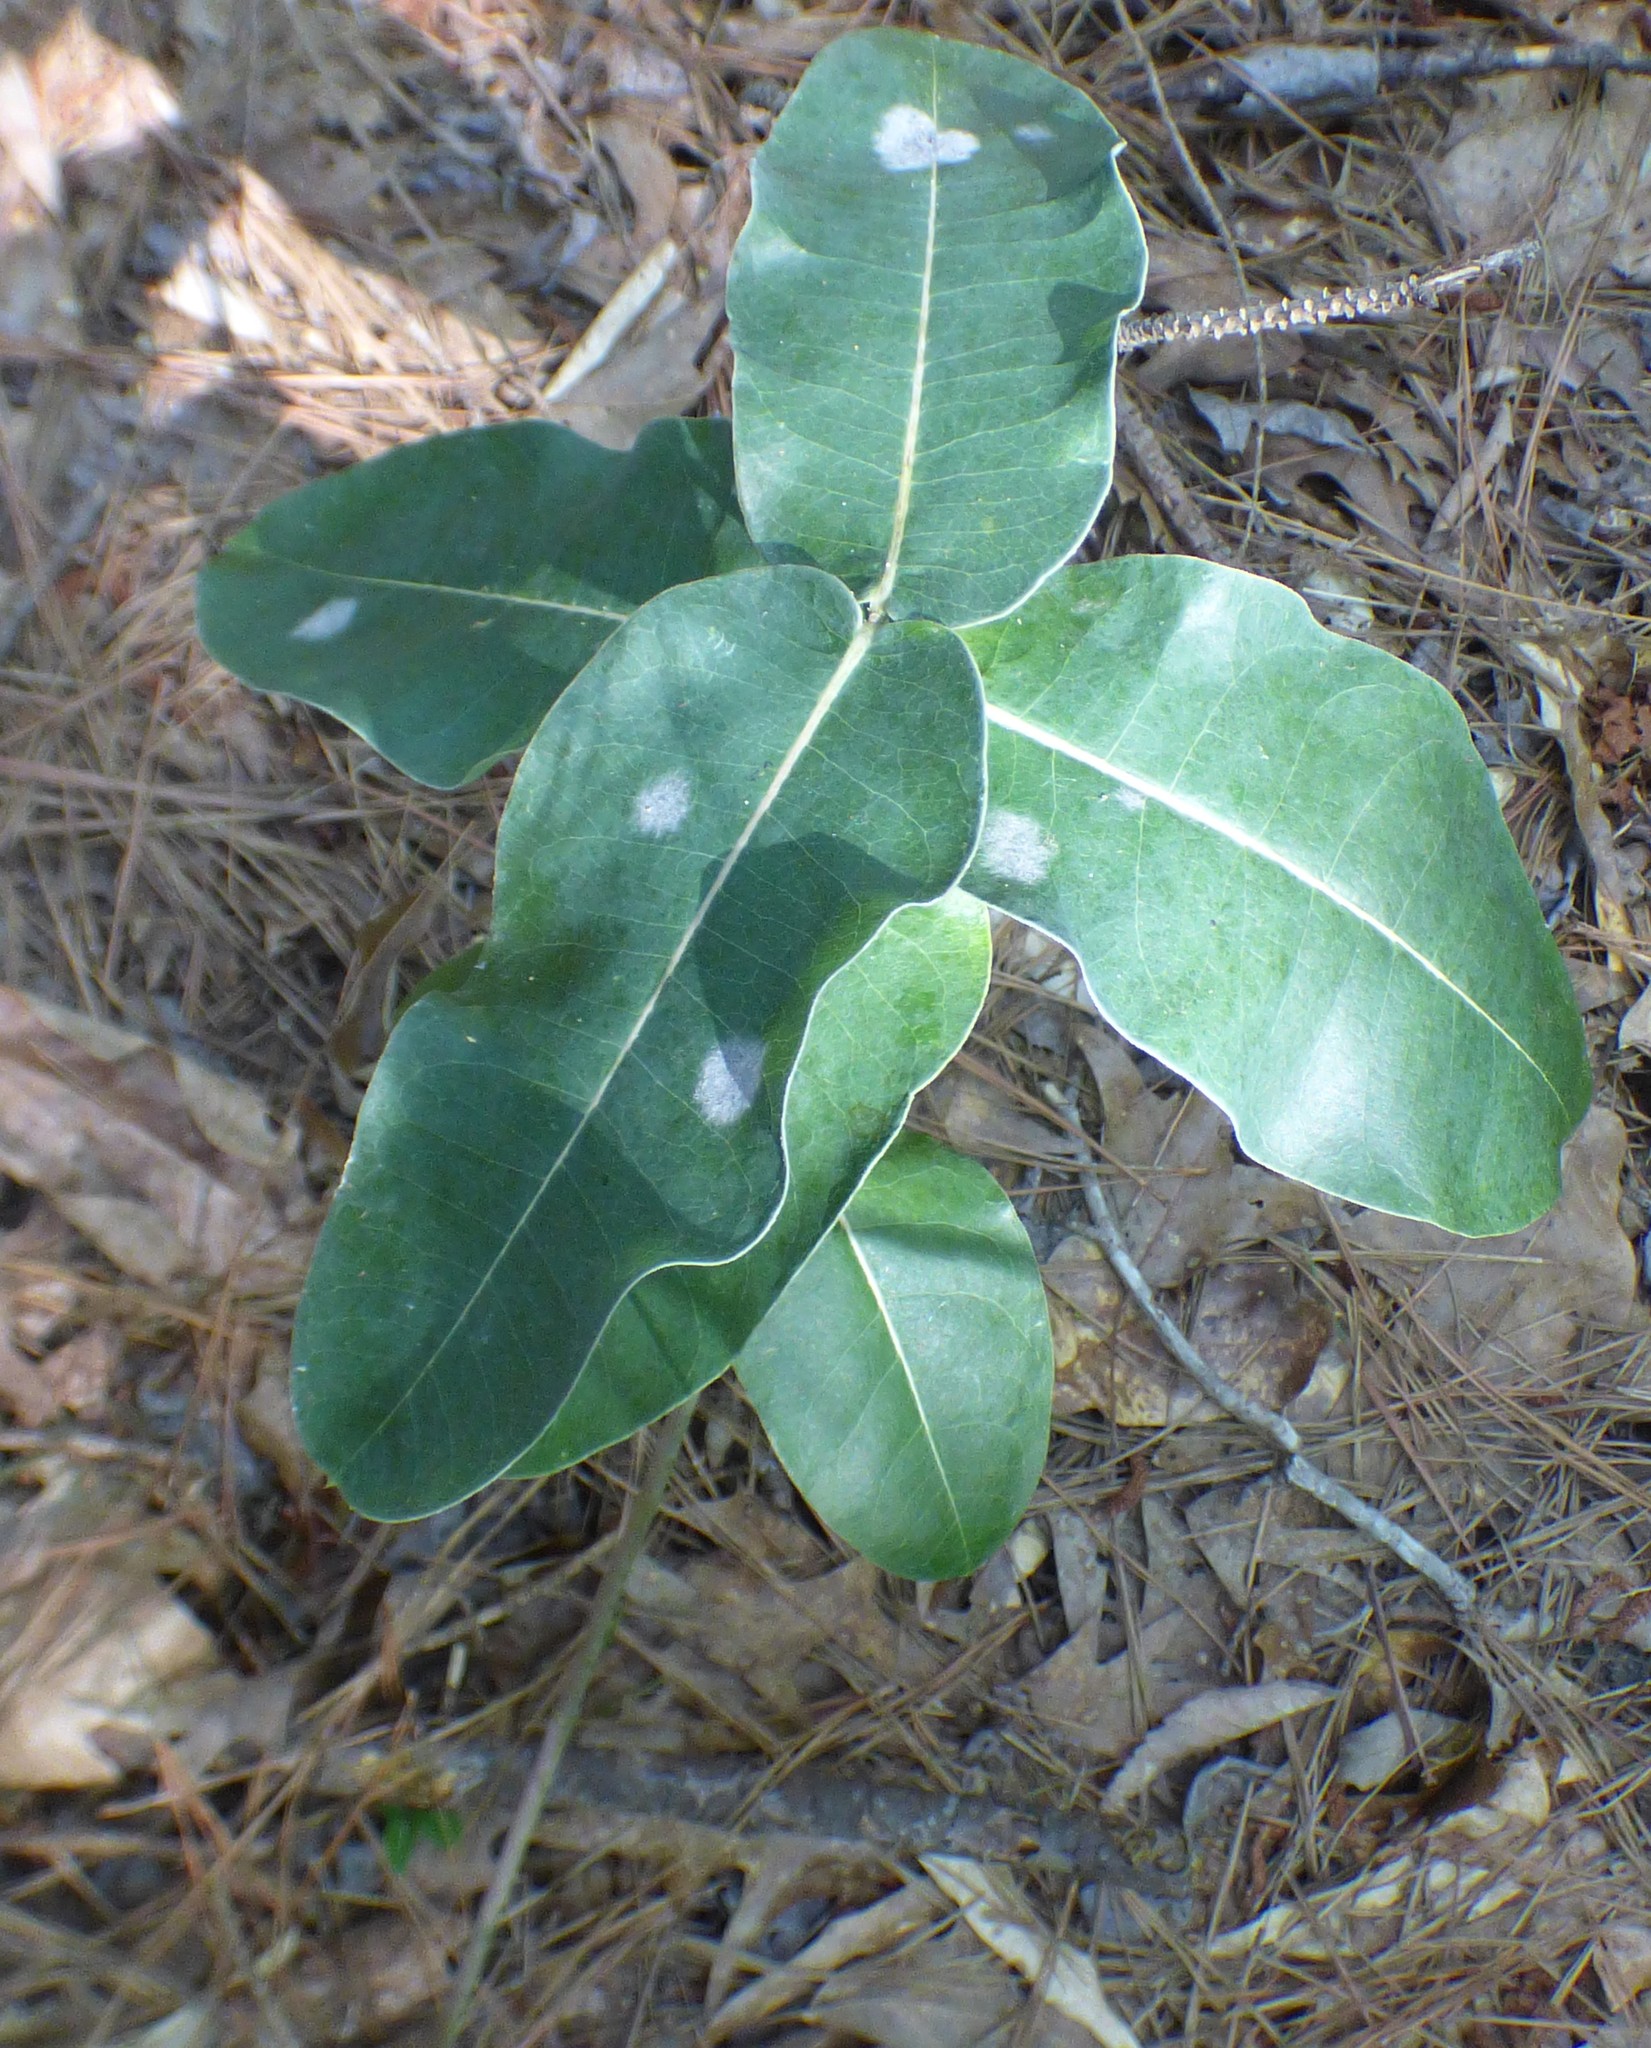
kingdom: Plantae
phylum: Tracheophyta
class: Magnoliopsida
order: Gentianales
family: Apocynaceae
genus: Asclepias
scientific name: Asclepias amplexicaulis
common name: Blunt-leaf milkweed
